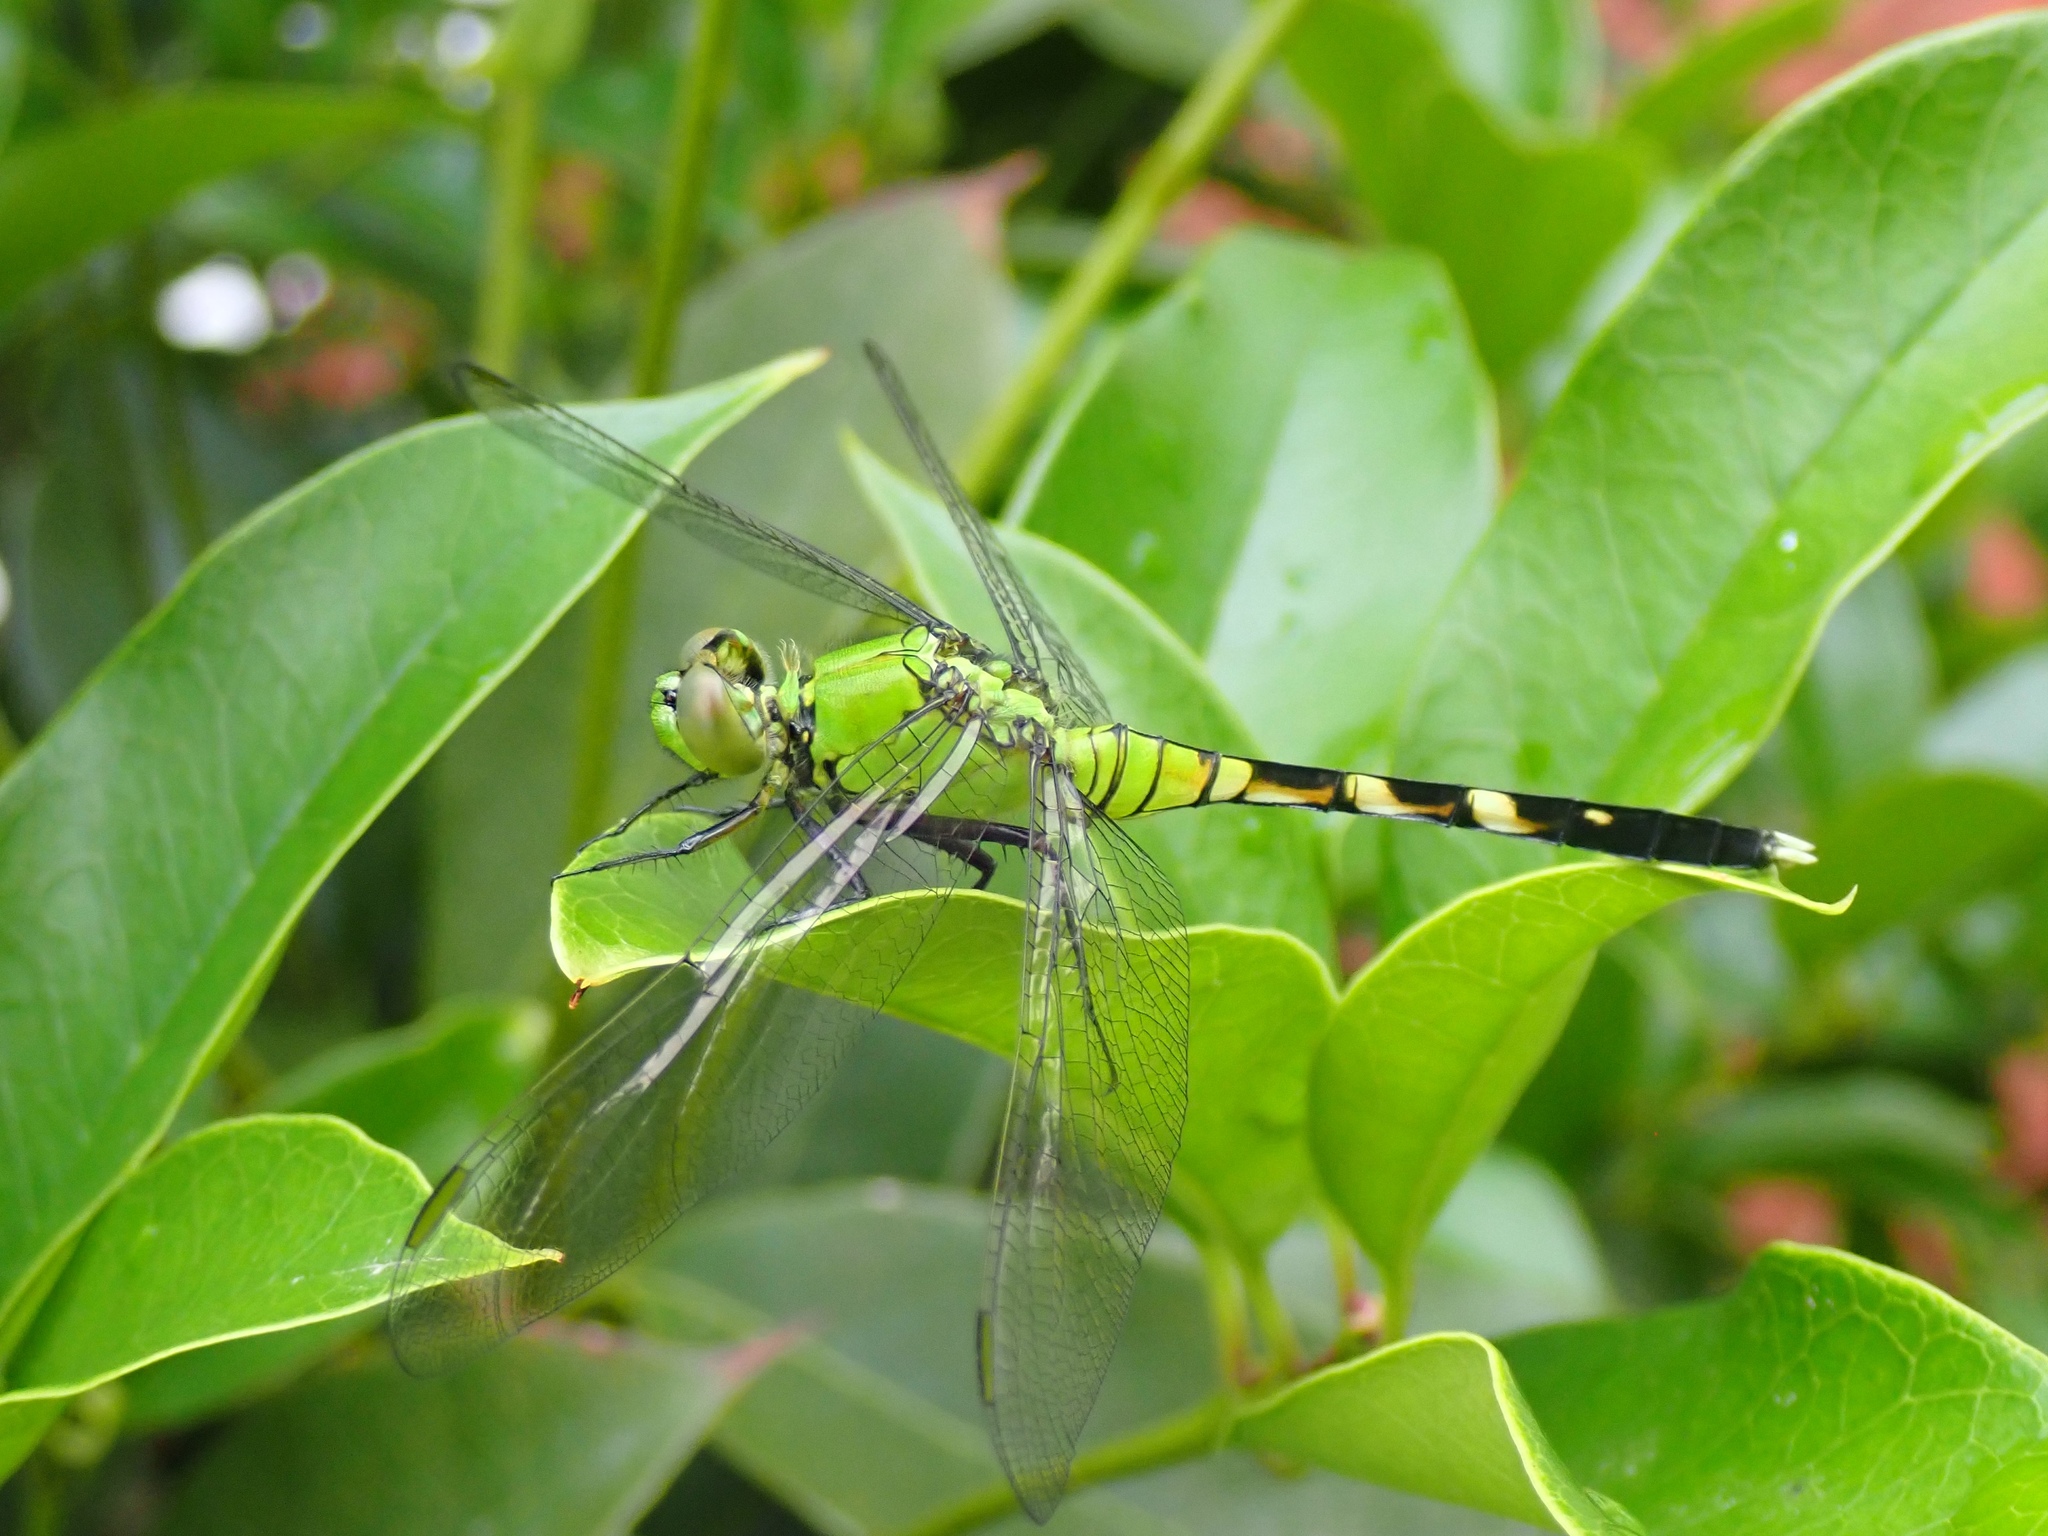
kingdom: Animalia
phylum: Arthropoda
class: Insecta
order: Odonata
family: Libellulidae
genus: Erythemis
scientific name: Erythemis simplicicollis
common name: Eastern pondhawk
